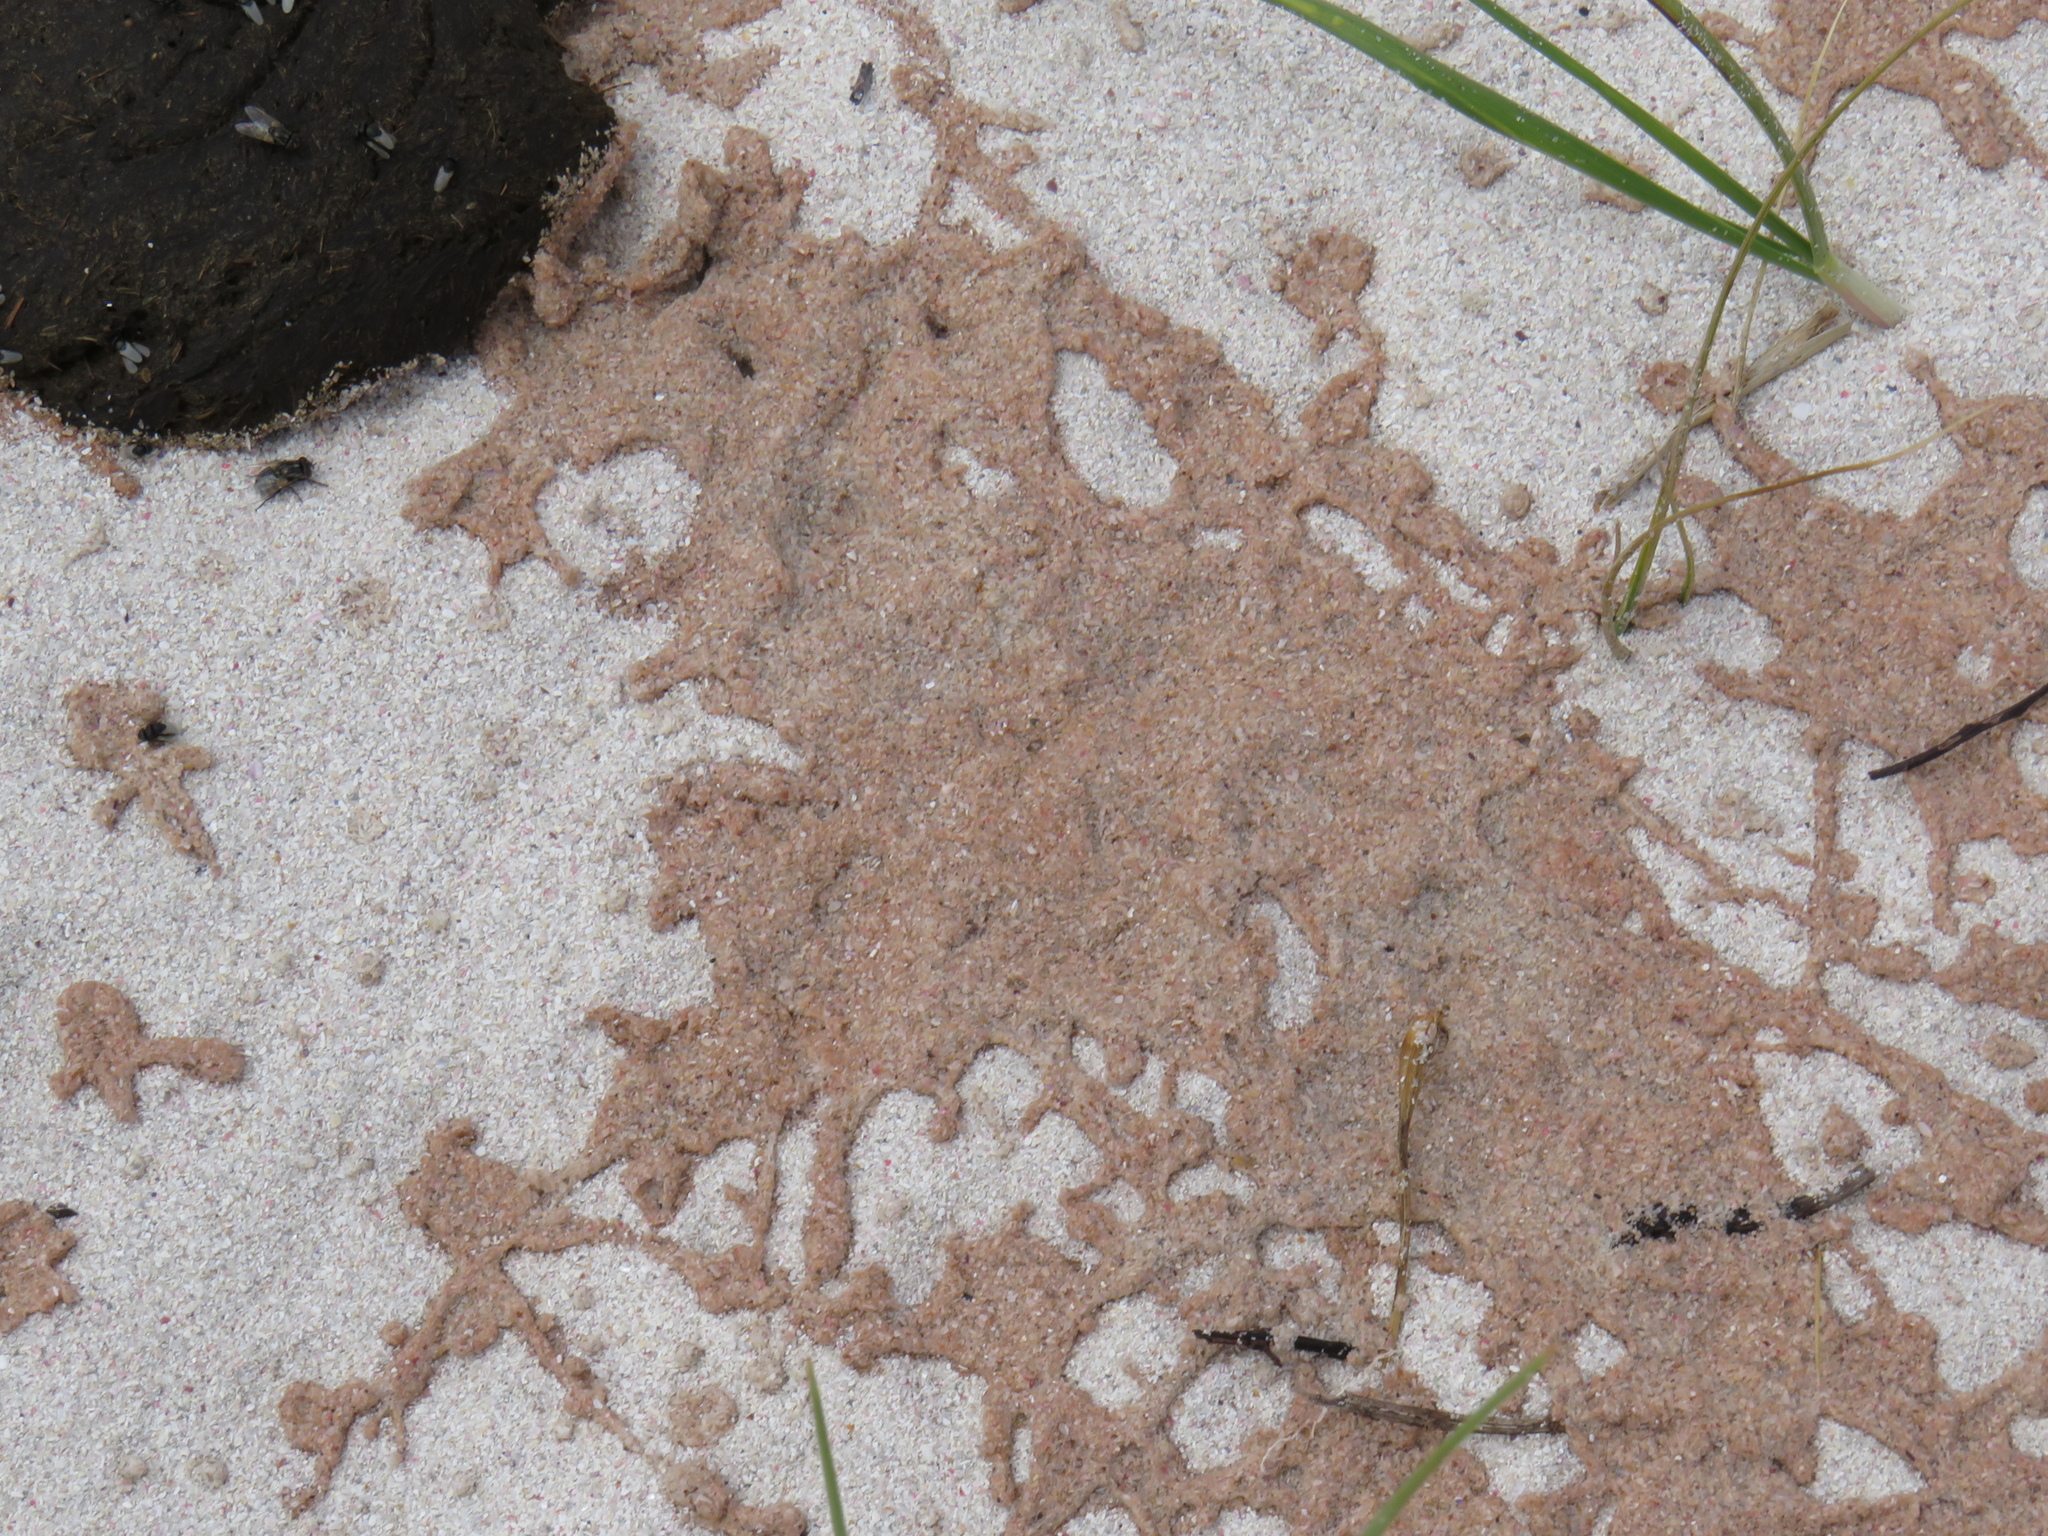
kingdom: Animalia
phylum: Chordata
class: Aves
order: Struthioniformes
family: Struthionidae
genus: Struthio
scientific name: Struthio camelus
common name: Common ostrich
